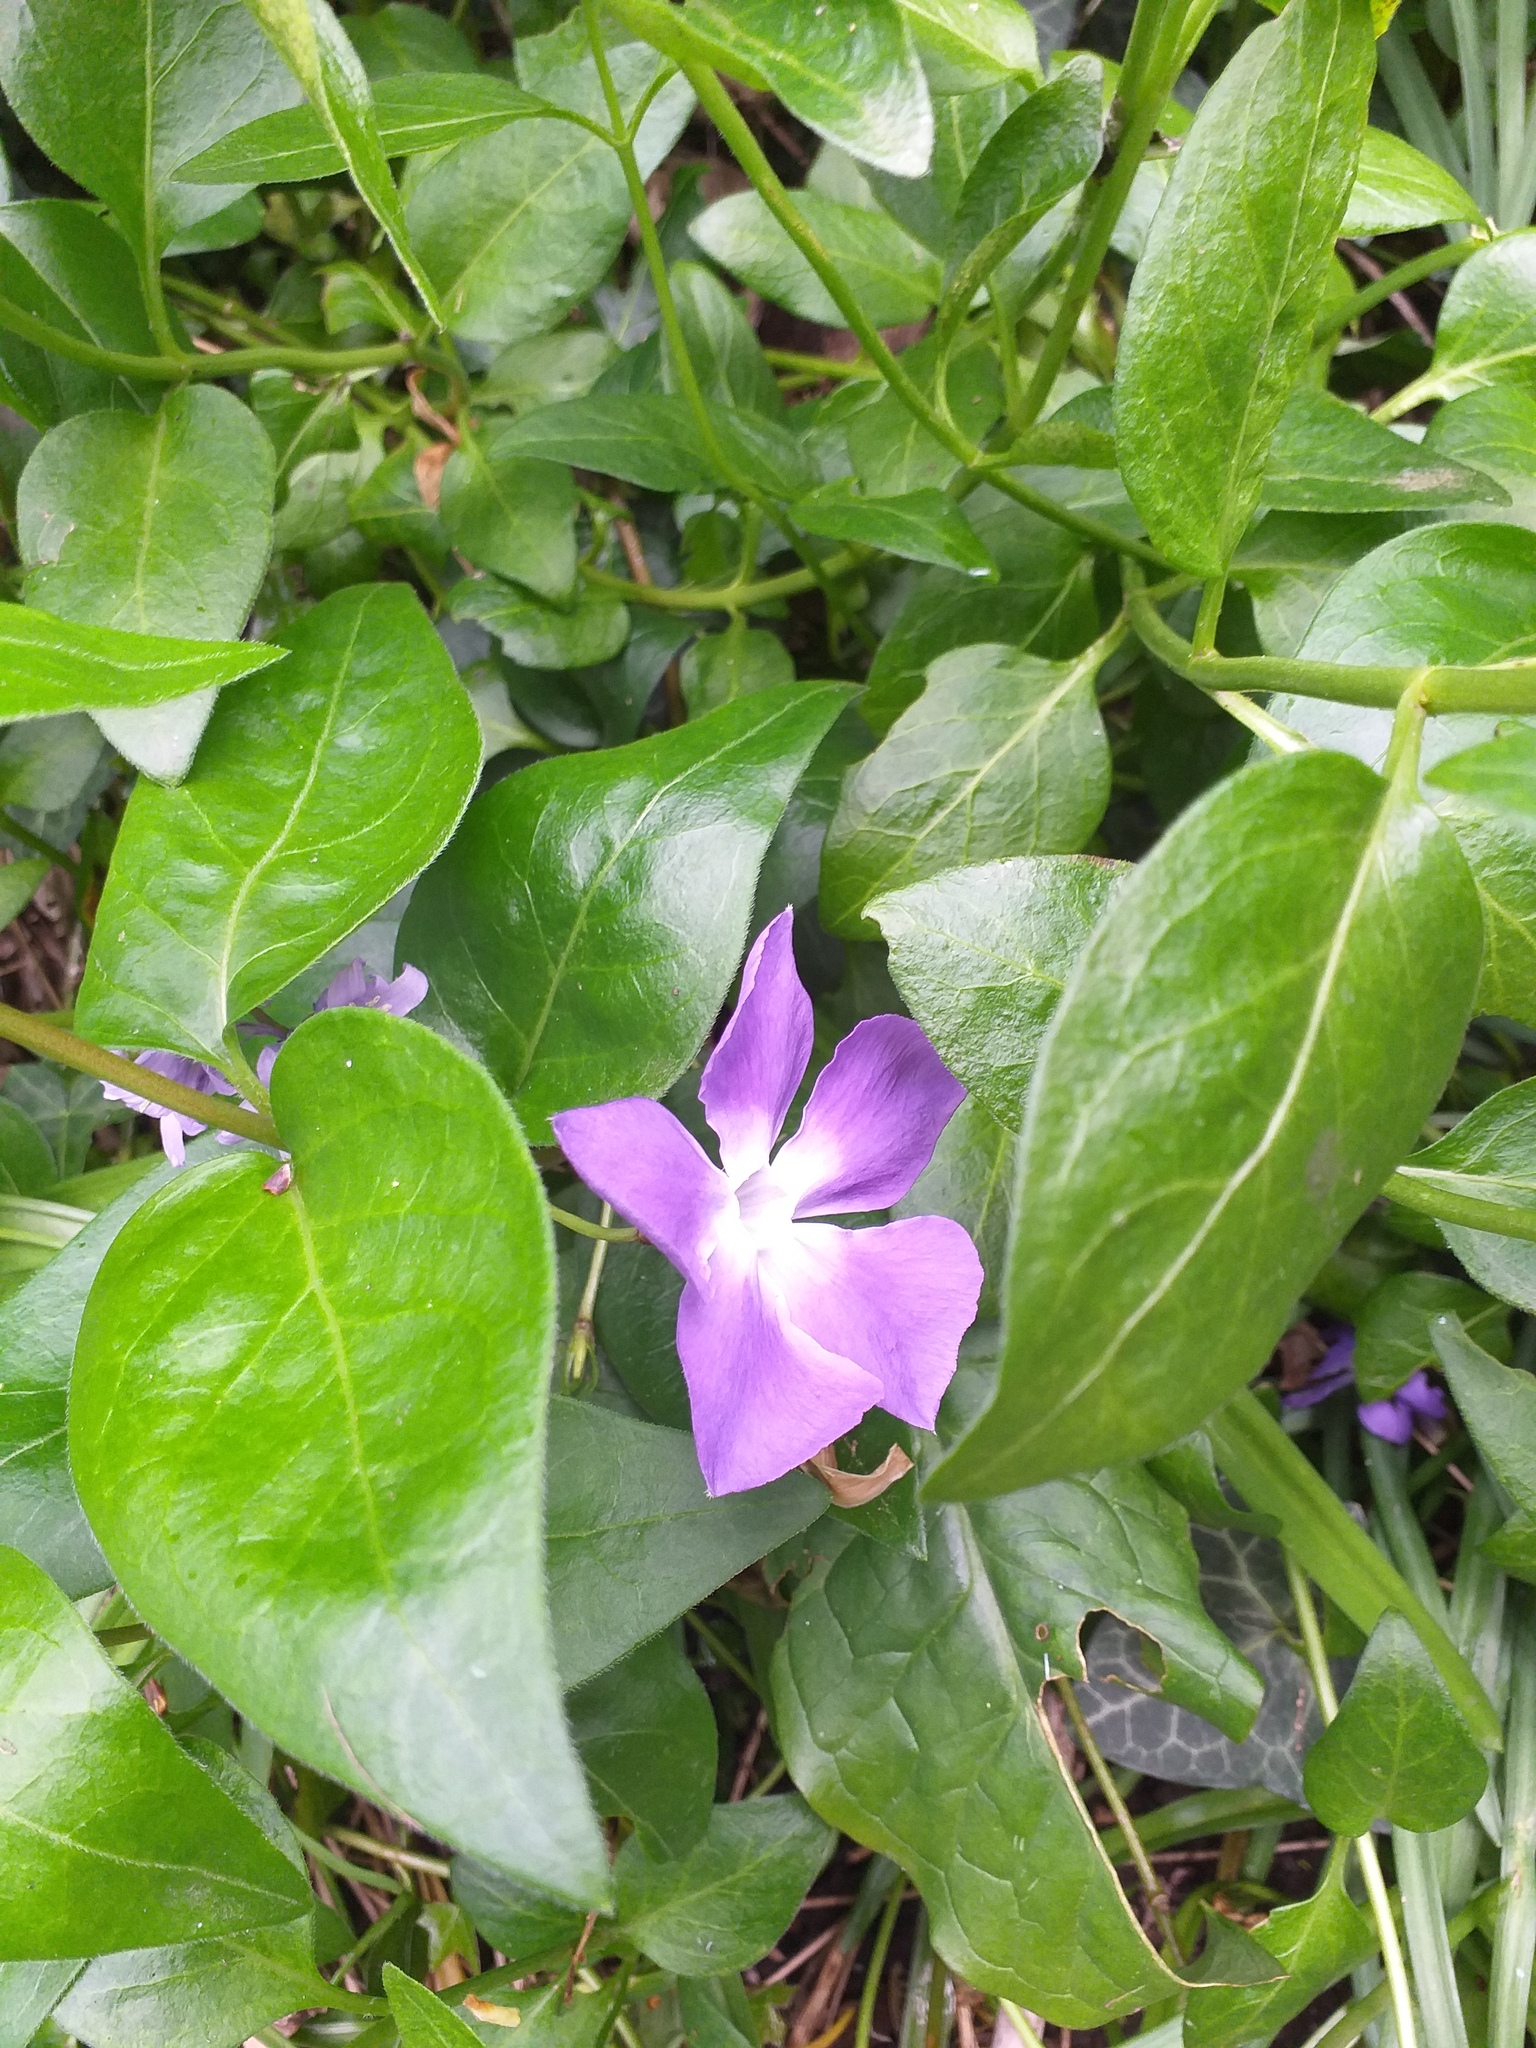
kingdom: Plantae
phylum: Tracheophyta
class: Magnoliopsida
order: Gentianales
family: Apocynaceae
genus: Vinca
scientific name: Vinca major
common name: Greater periwinkle
